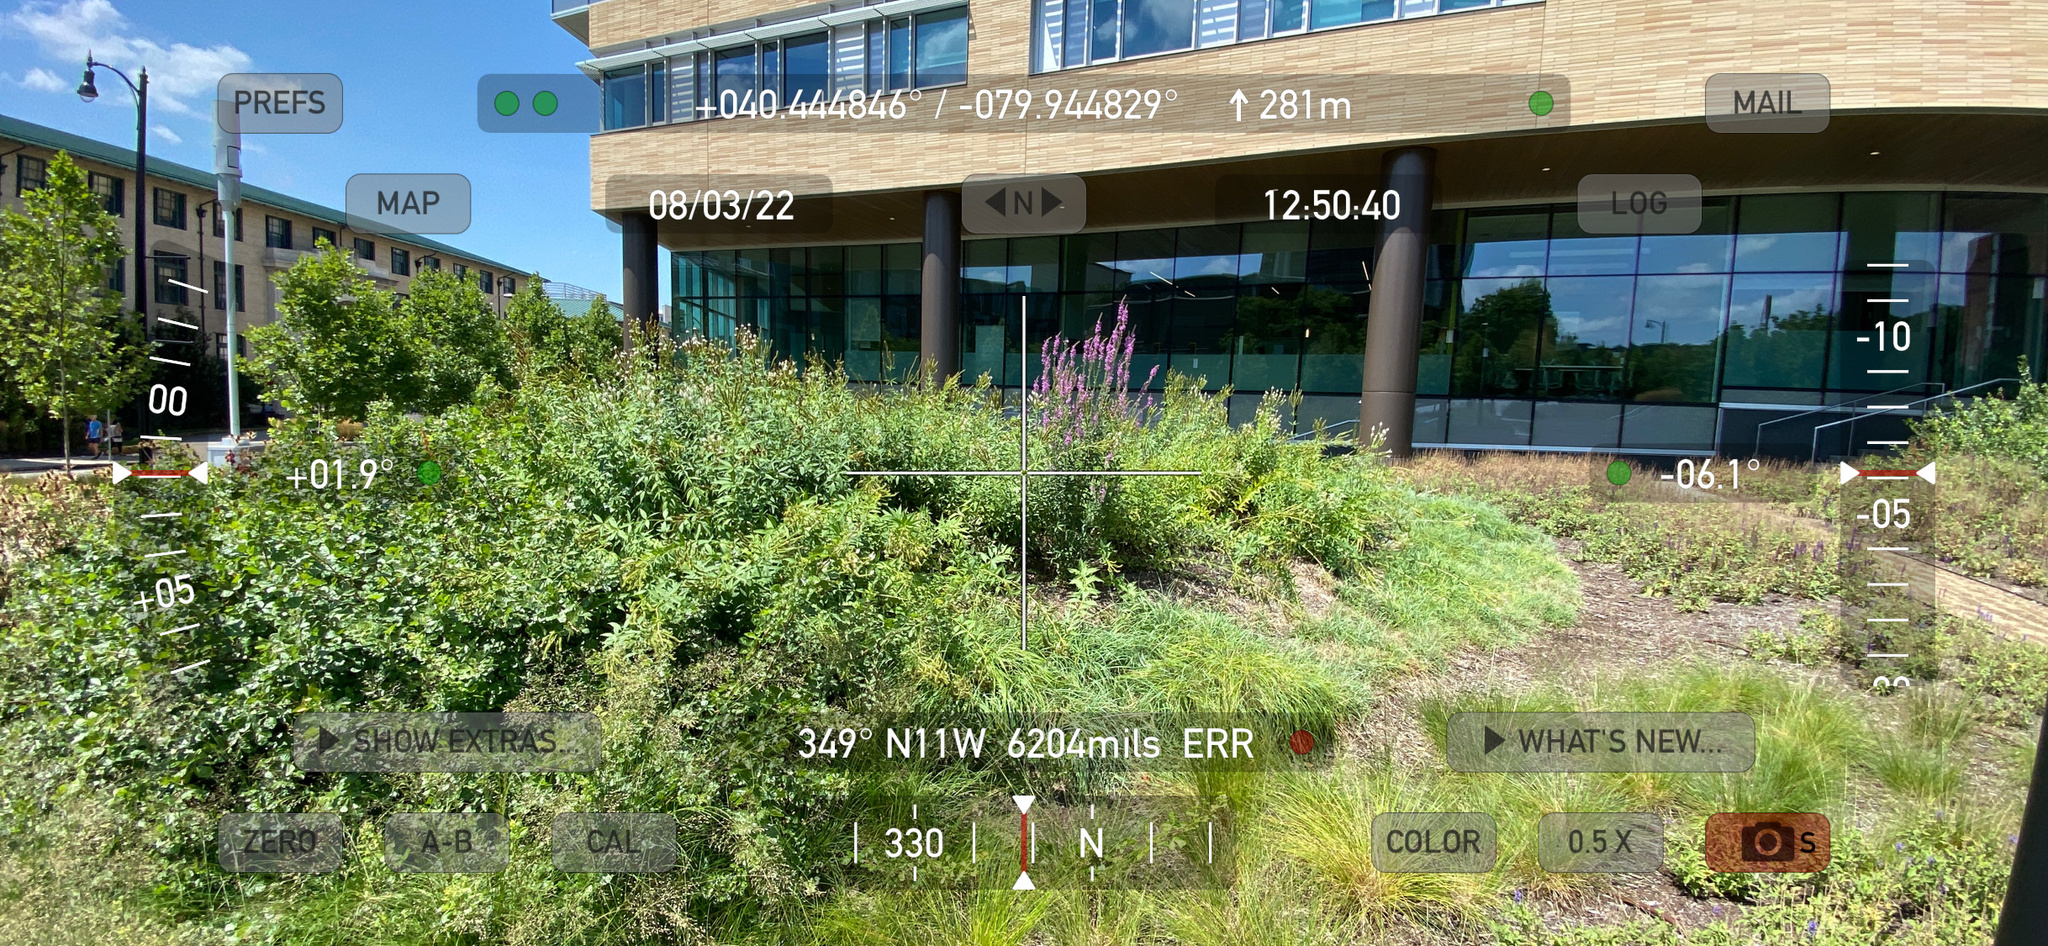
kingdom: Plantae
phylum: Tracheophyta
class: Magnoliopsida
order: Myrtales
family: Lythraceae
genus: Lythrum
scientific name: Lythrum salicaria
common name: Purple loosestrife
